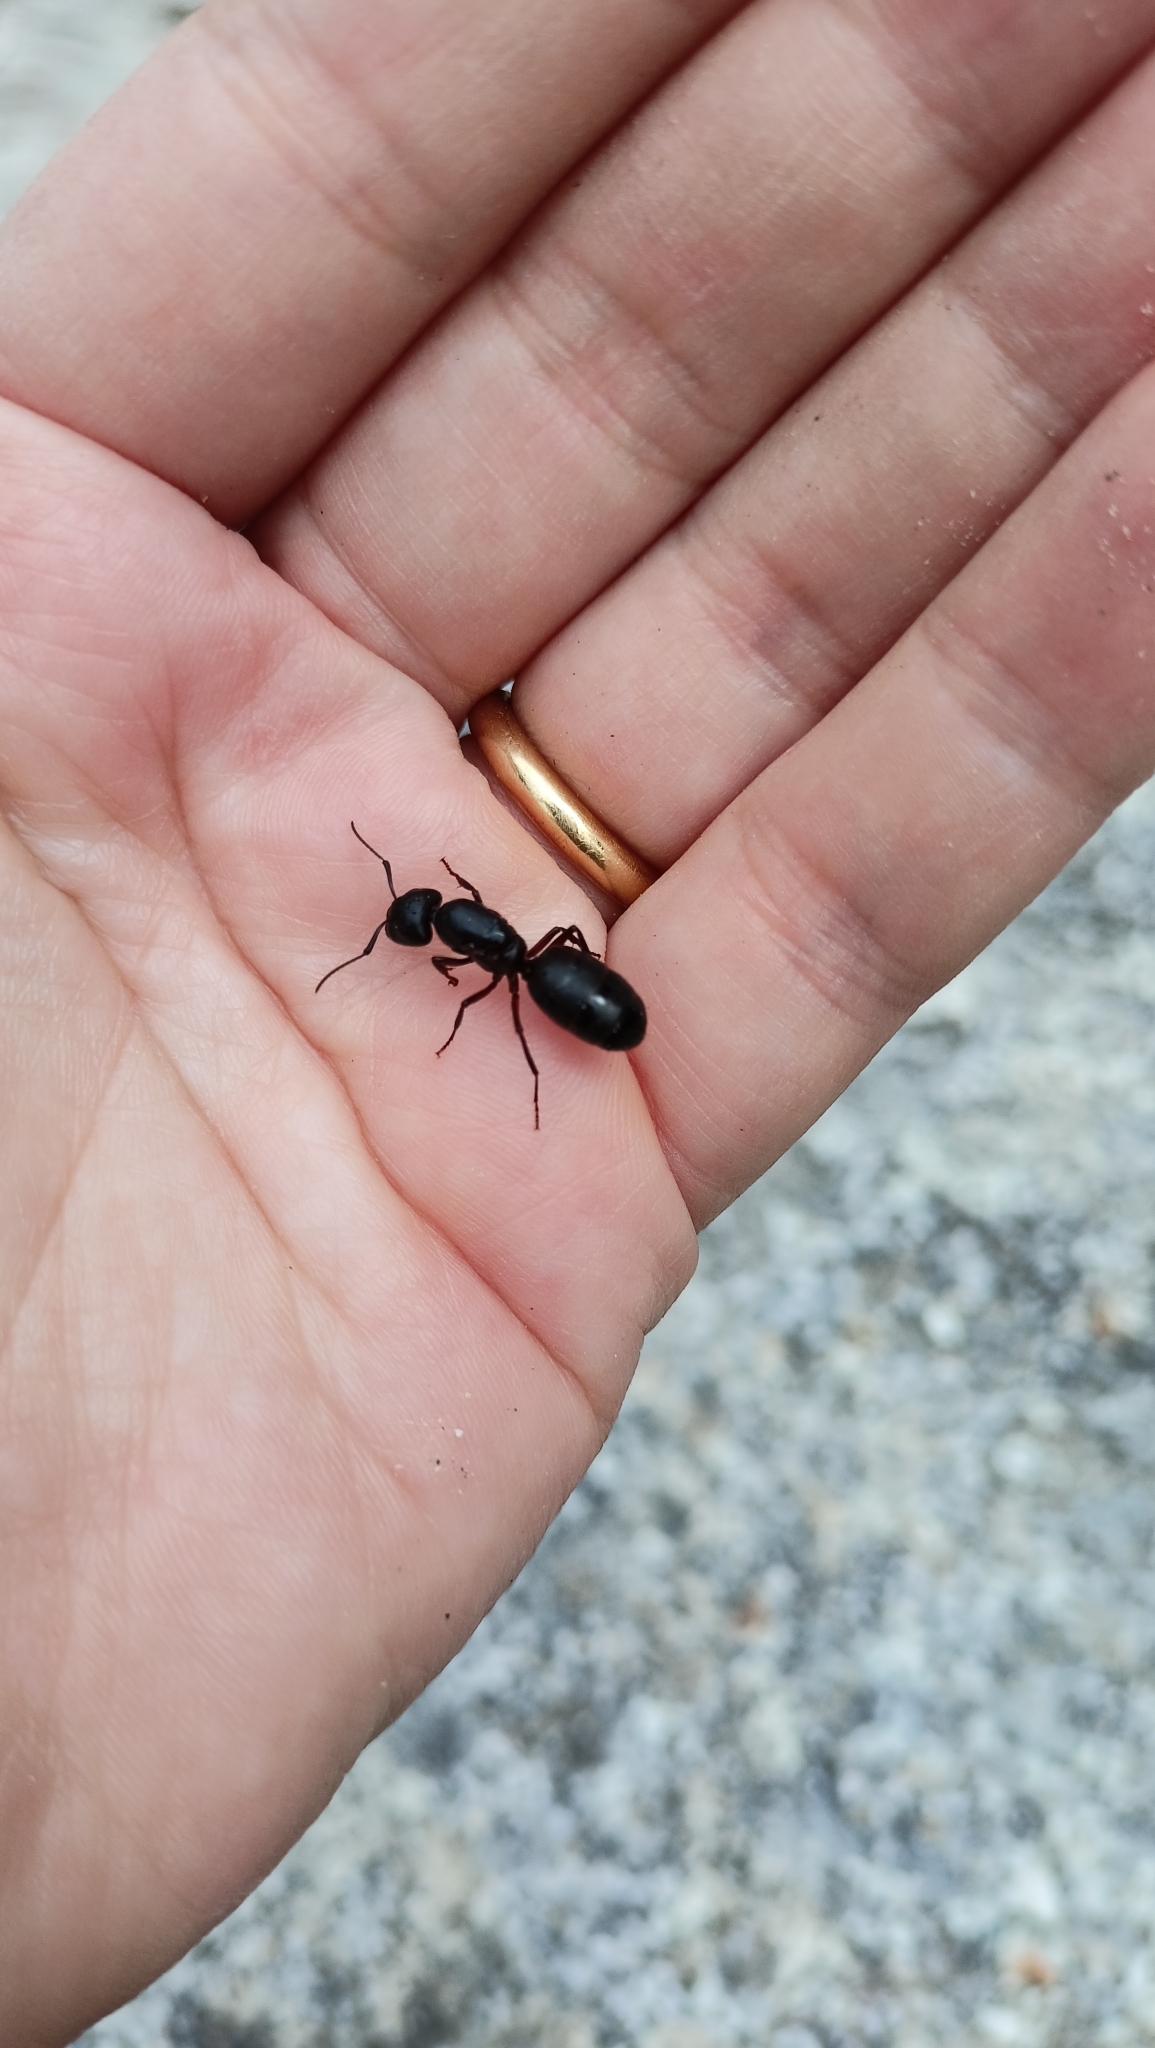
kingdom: Animalia
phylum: Arthropoda
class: Insecta
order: Hymenoptera
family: Formicidae
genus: Camponotus
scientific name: Camponotus herculeanus
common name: Hercules ant
